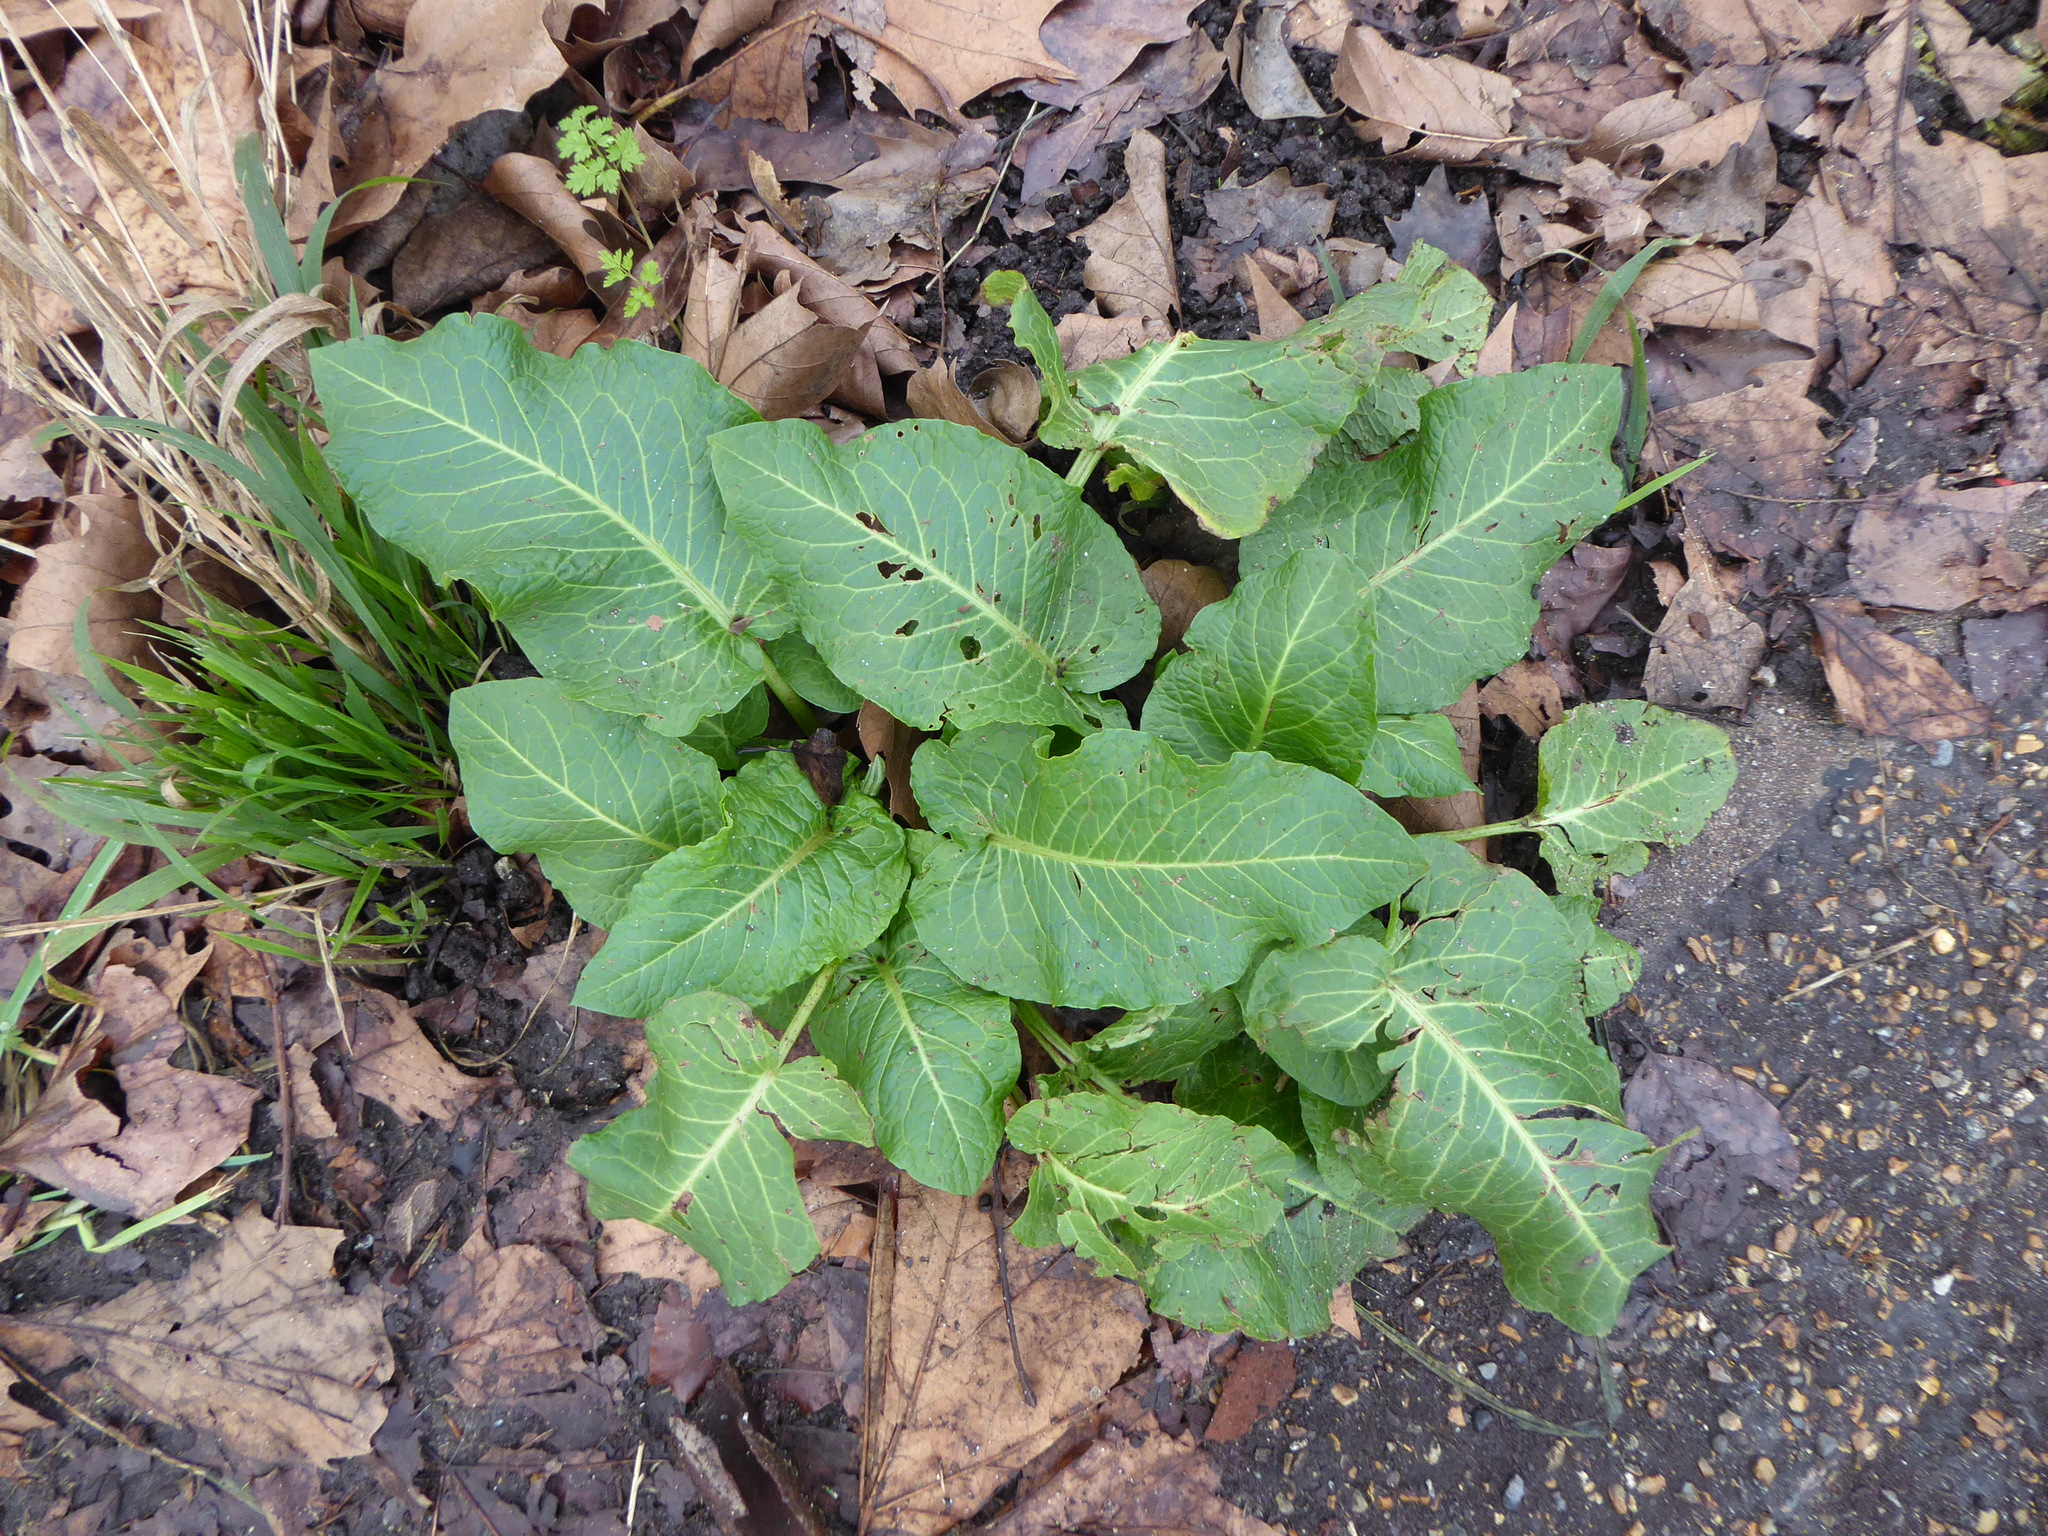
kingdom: Plantae
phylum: Tracheophyta
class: Magnoliopsida
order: Caryophyllales
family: Polygonaceae
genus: Rumex
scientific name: Rumex obtusifolius
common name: Bitter dock
